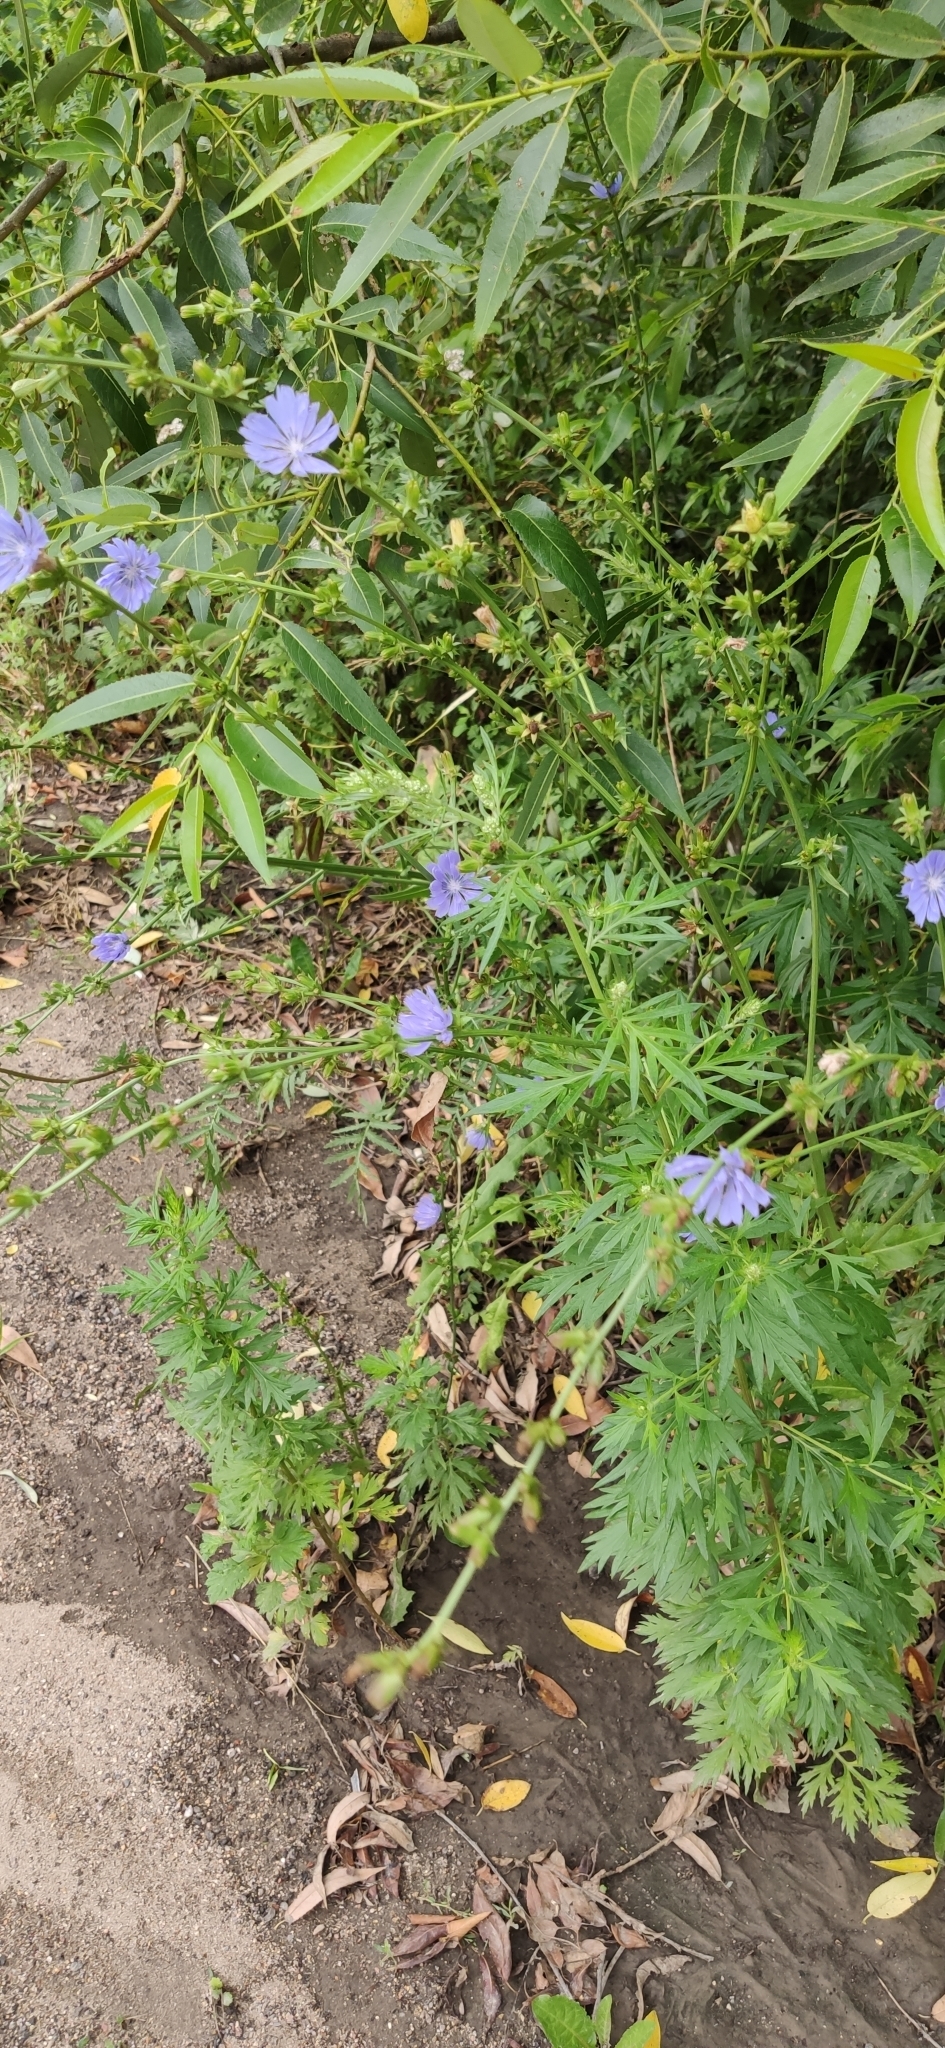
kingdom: Plantae
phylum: Tracheophyta
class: Magnoliopsida
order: Asterales
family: Asteraceae
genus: Cichorium
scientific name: Cichorium intybus
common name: Chicory
